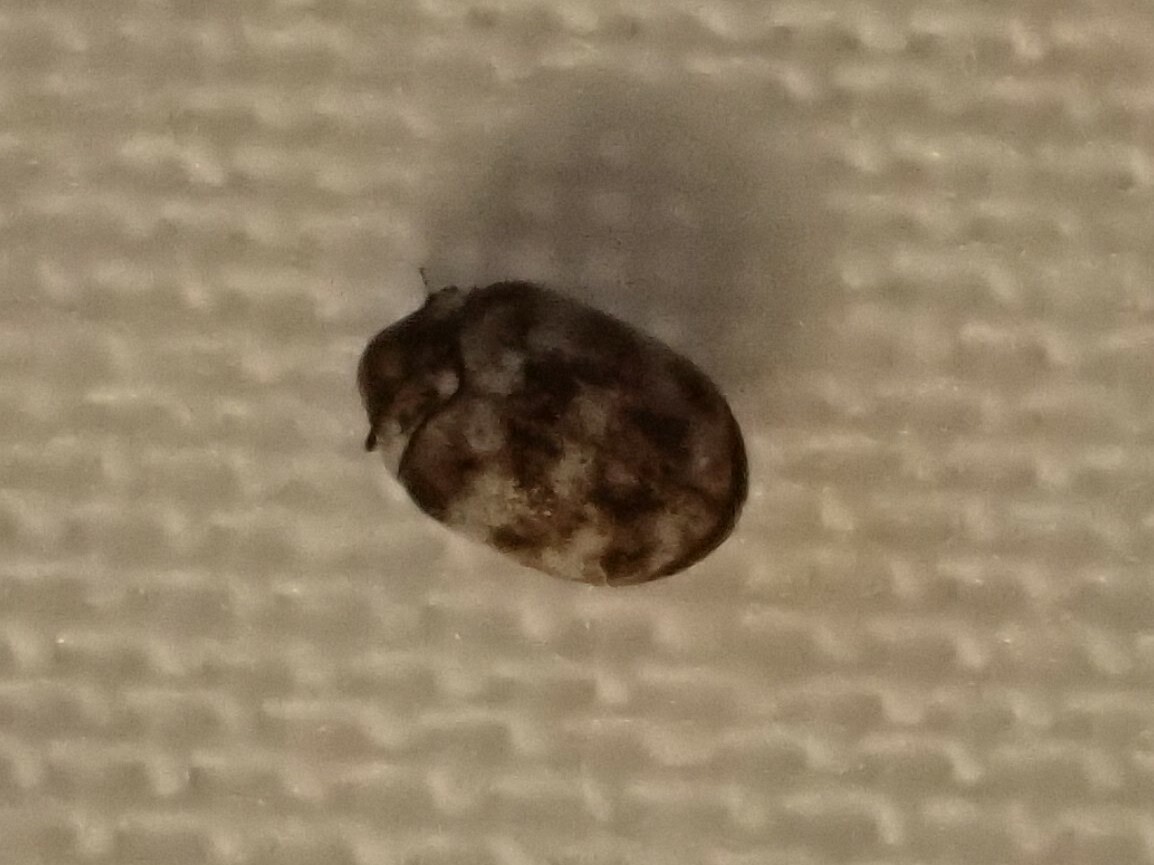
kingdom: Animalia
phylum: Arthropoda
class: Insecta
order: Coleoptera
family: Dermestidae
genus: Anthrenus
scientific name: Anthrenus verbasci
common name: Varied carpet beetle
